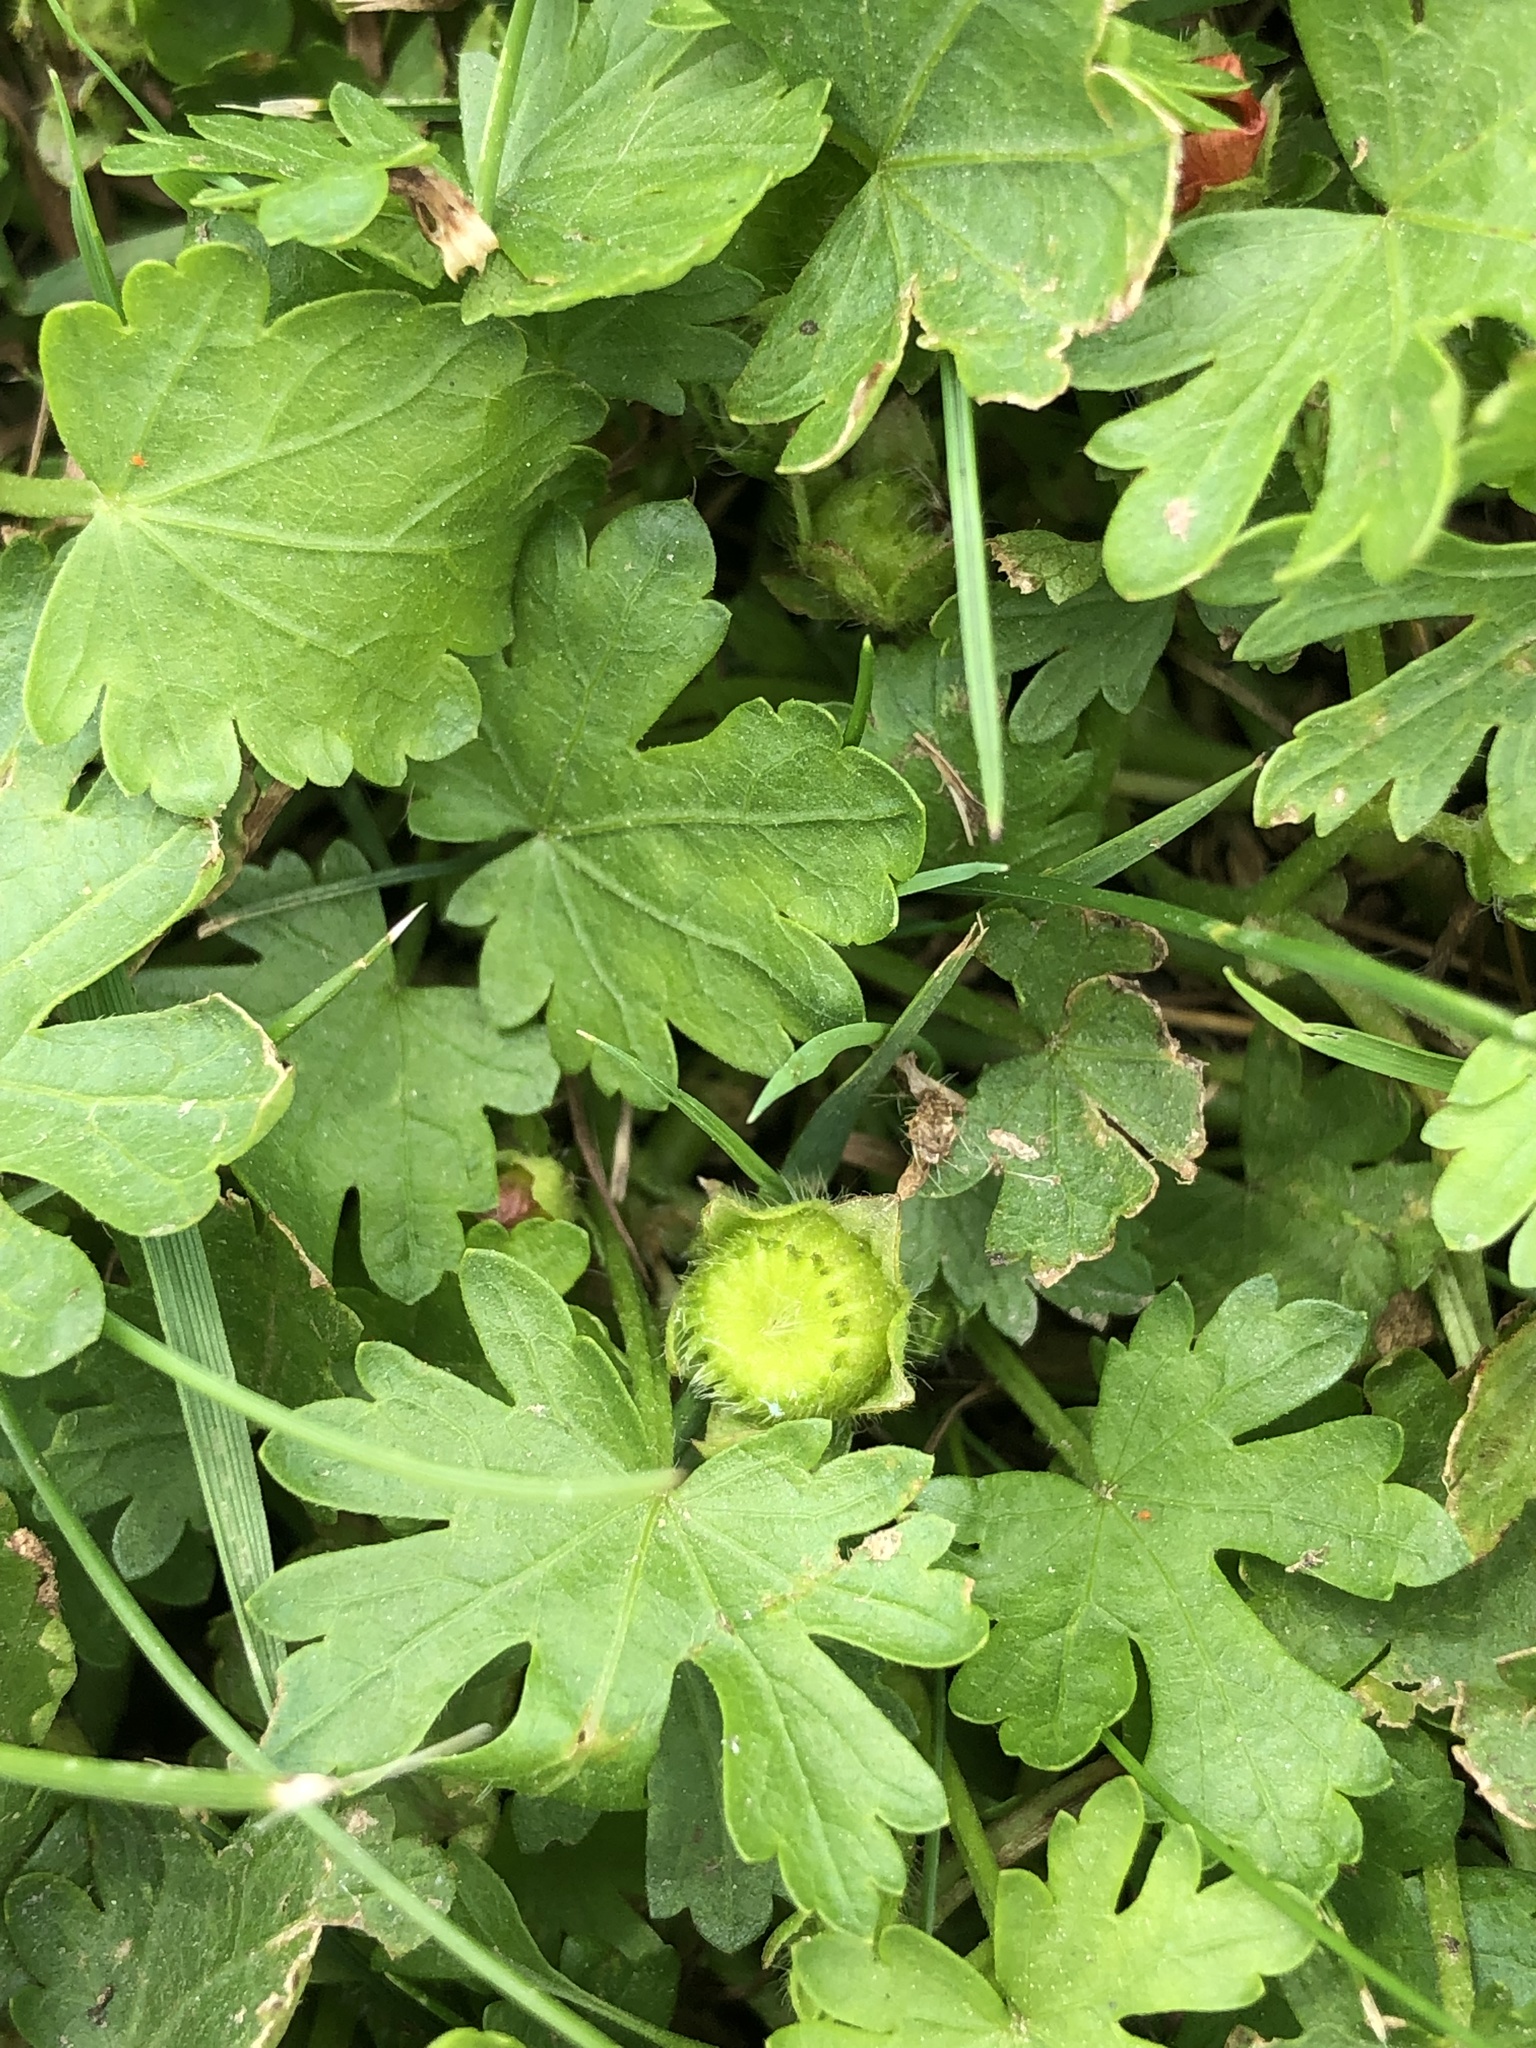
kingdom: Plantae
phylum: Tracheophyta
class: Magnoliopsida
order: Malvales
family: Malvaceae
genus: Modiola
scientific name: Modiola caroliniana
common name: Carolina bristlemallow
